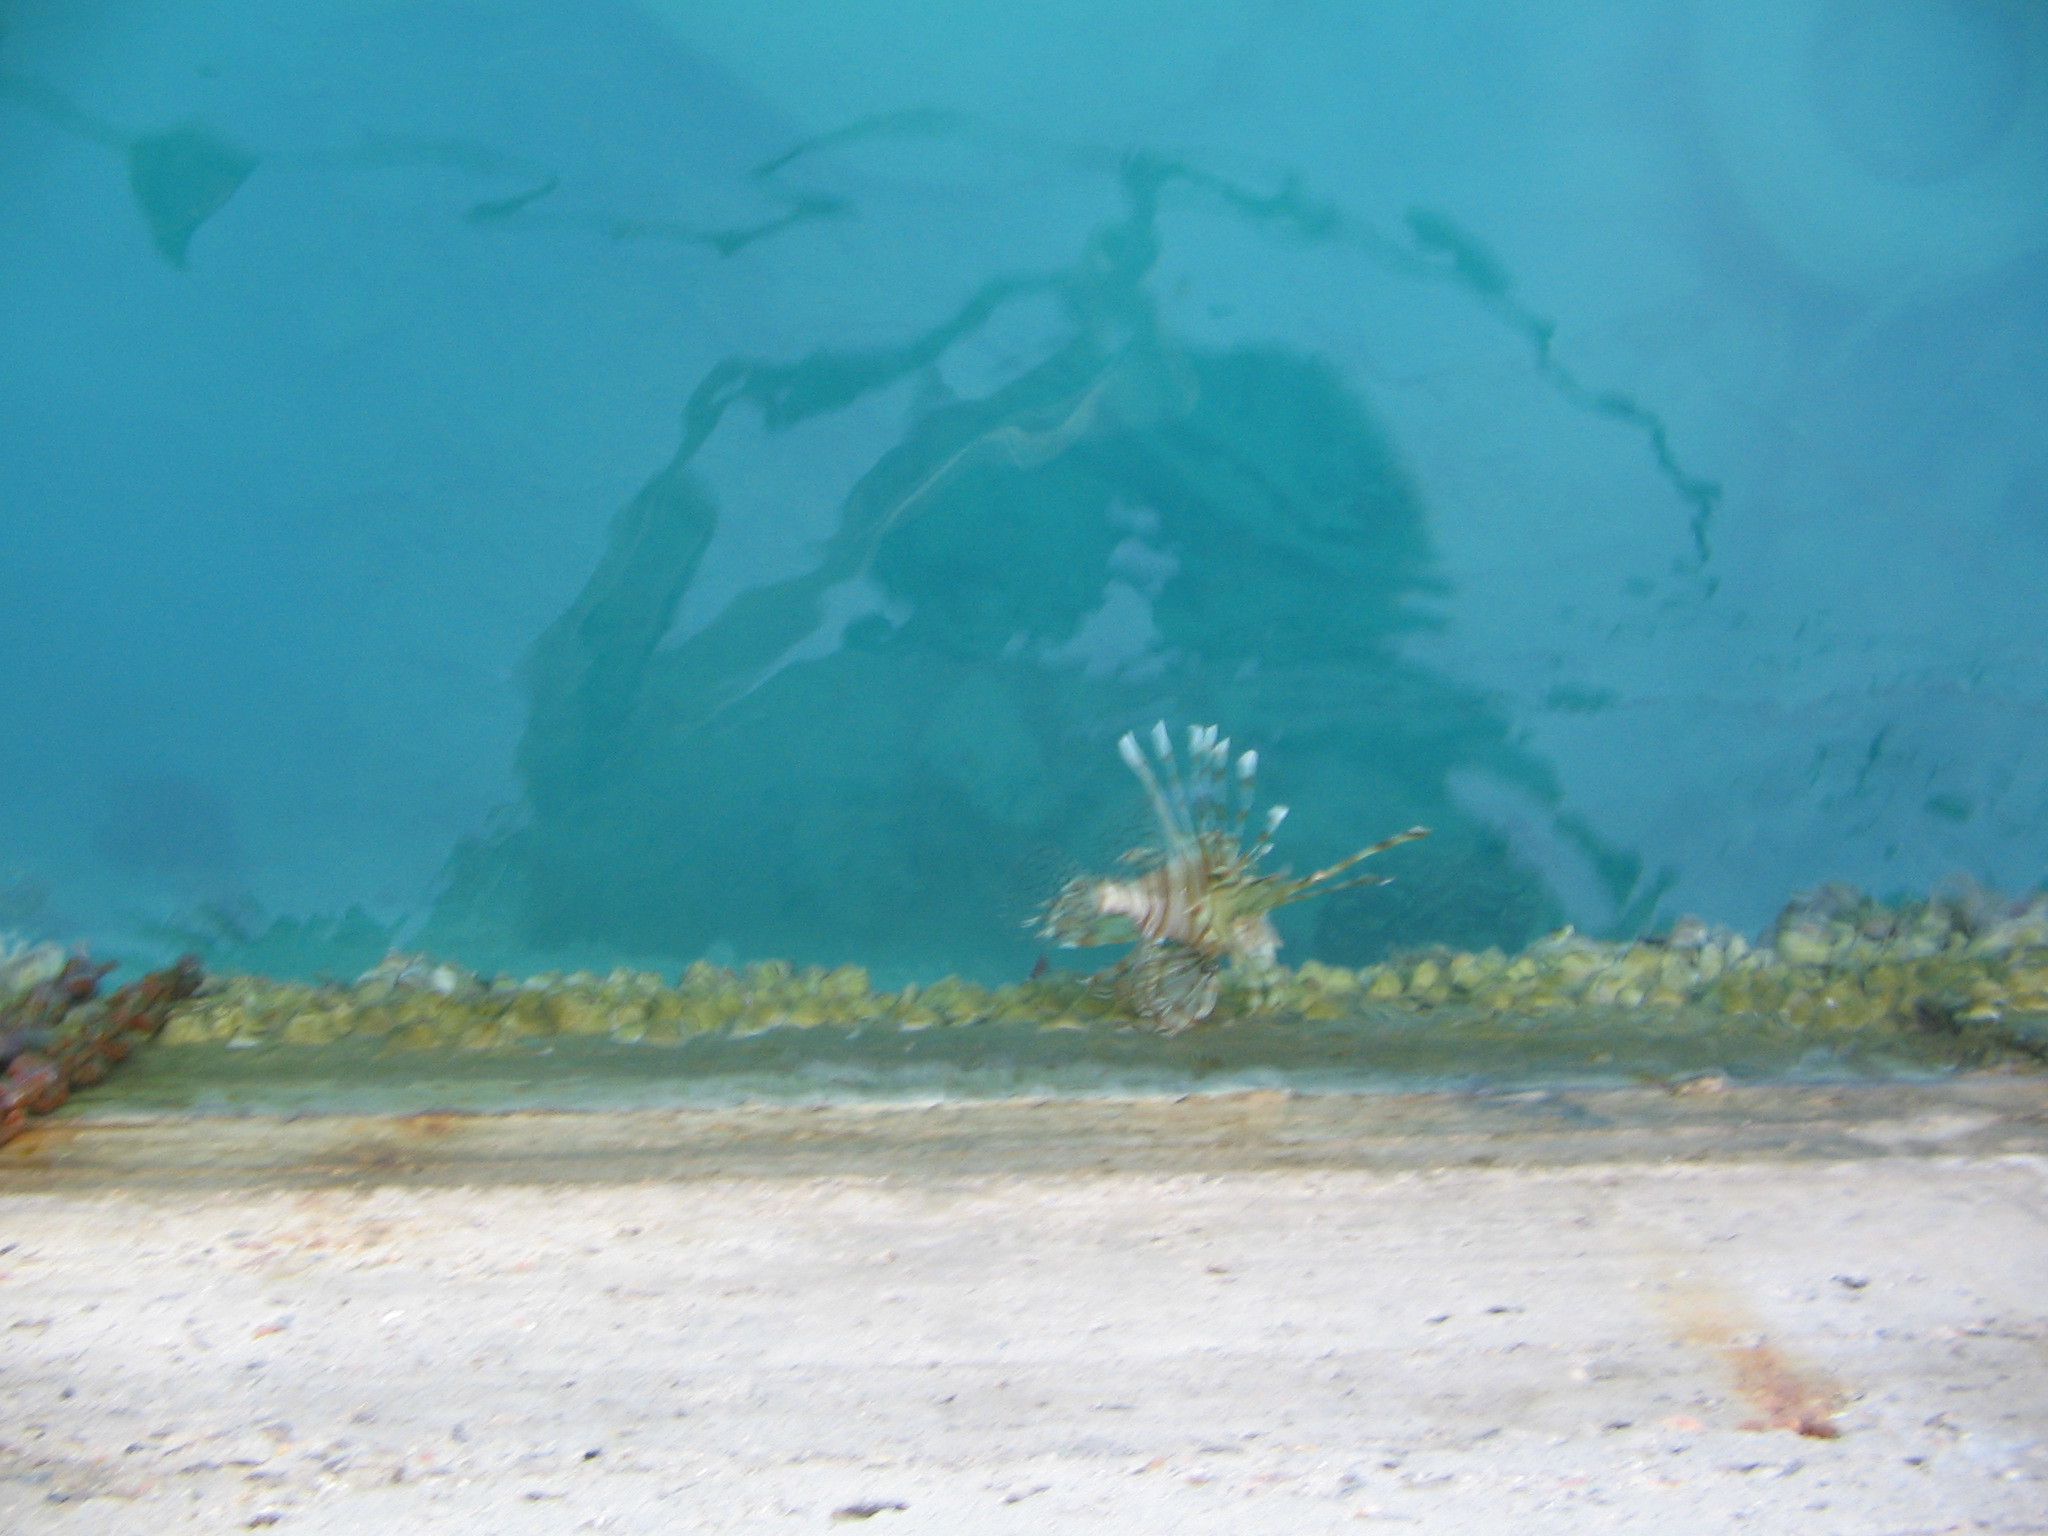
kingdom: Animalia
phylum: Chordata
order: Scorpaeniformes
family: Scorpaenidae
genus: Pterois
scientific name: Pterois miles
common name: Devil firefish
